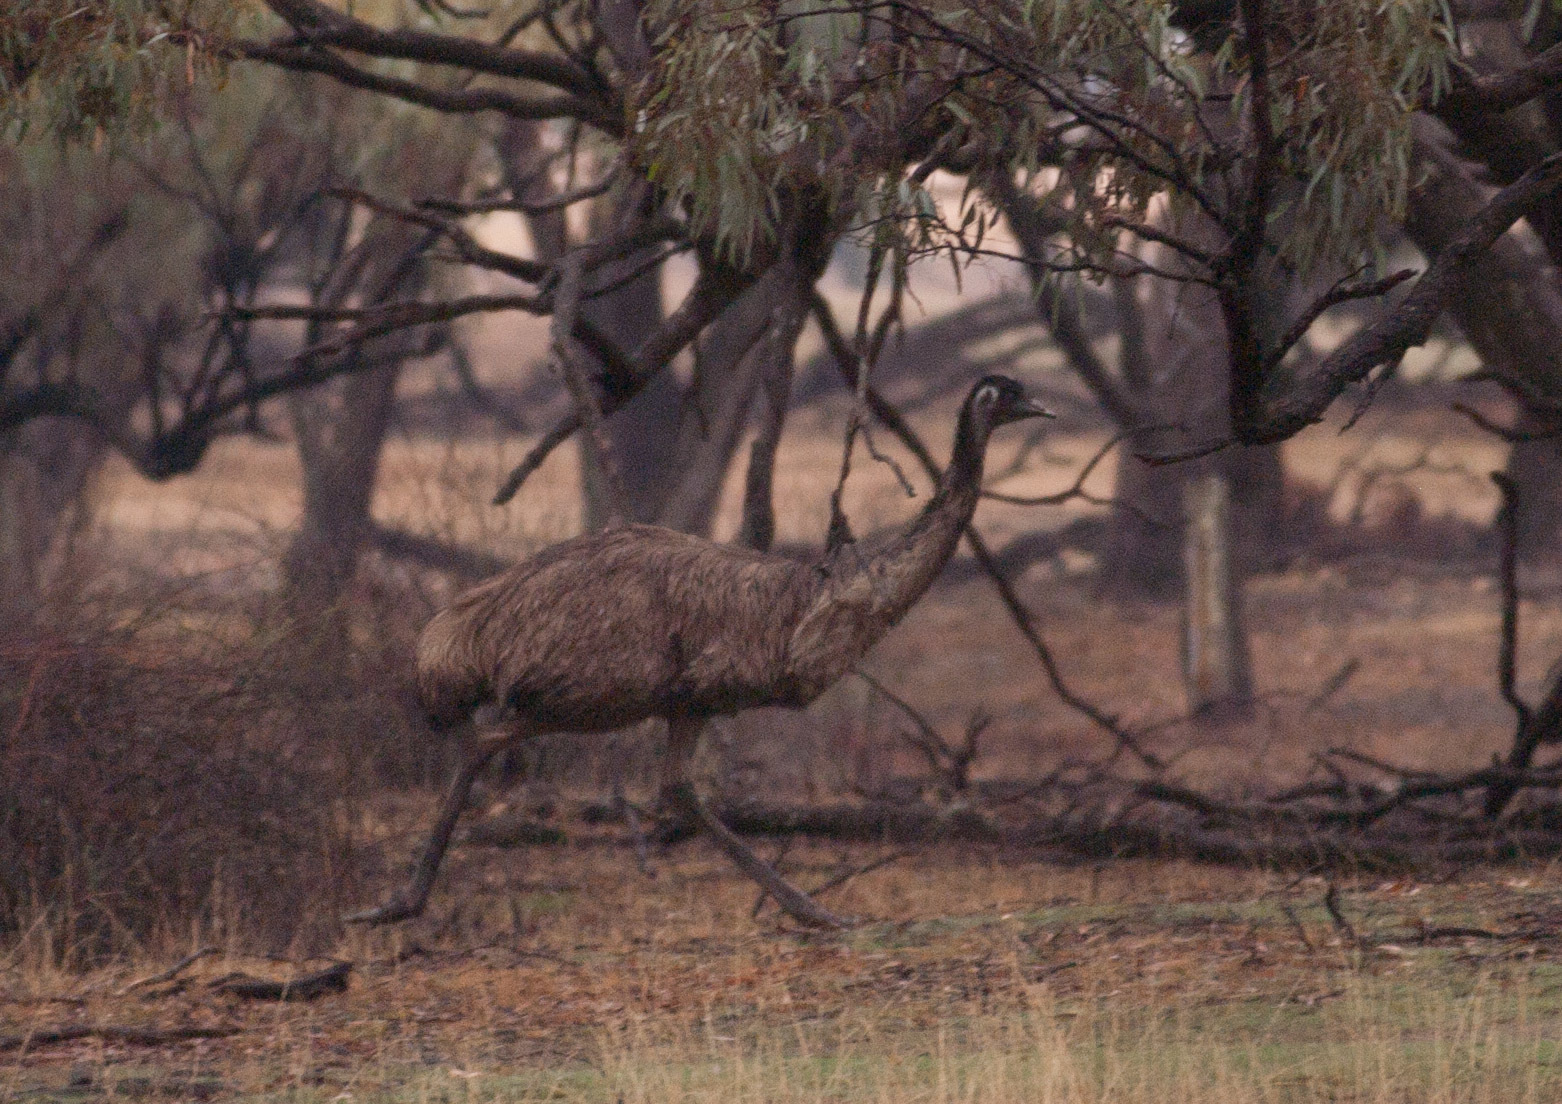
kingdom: Animalia
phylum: Chordata
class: Aves
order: Casuariiformes
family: Dromaiidae
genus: Dromaius
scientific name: Dromaius novaehollandiae
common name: Emu
